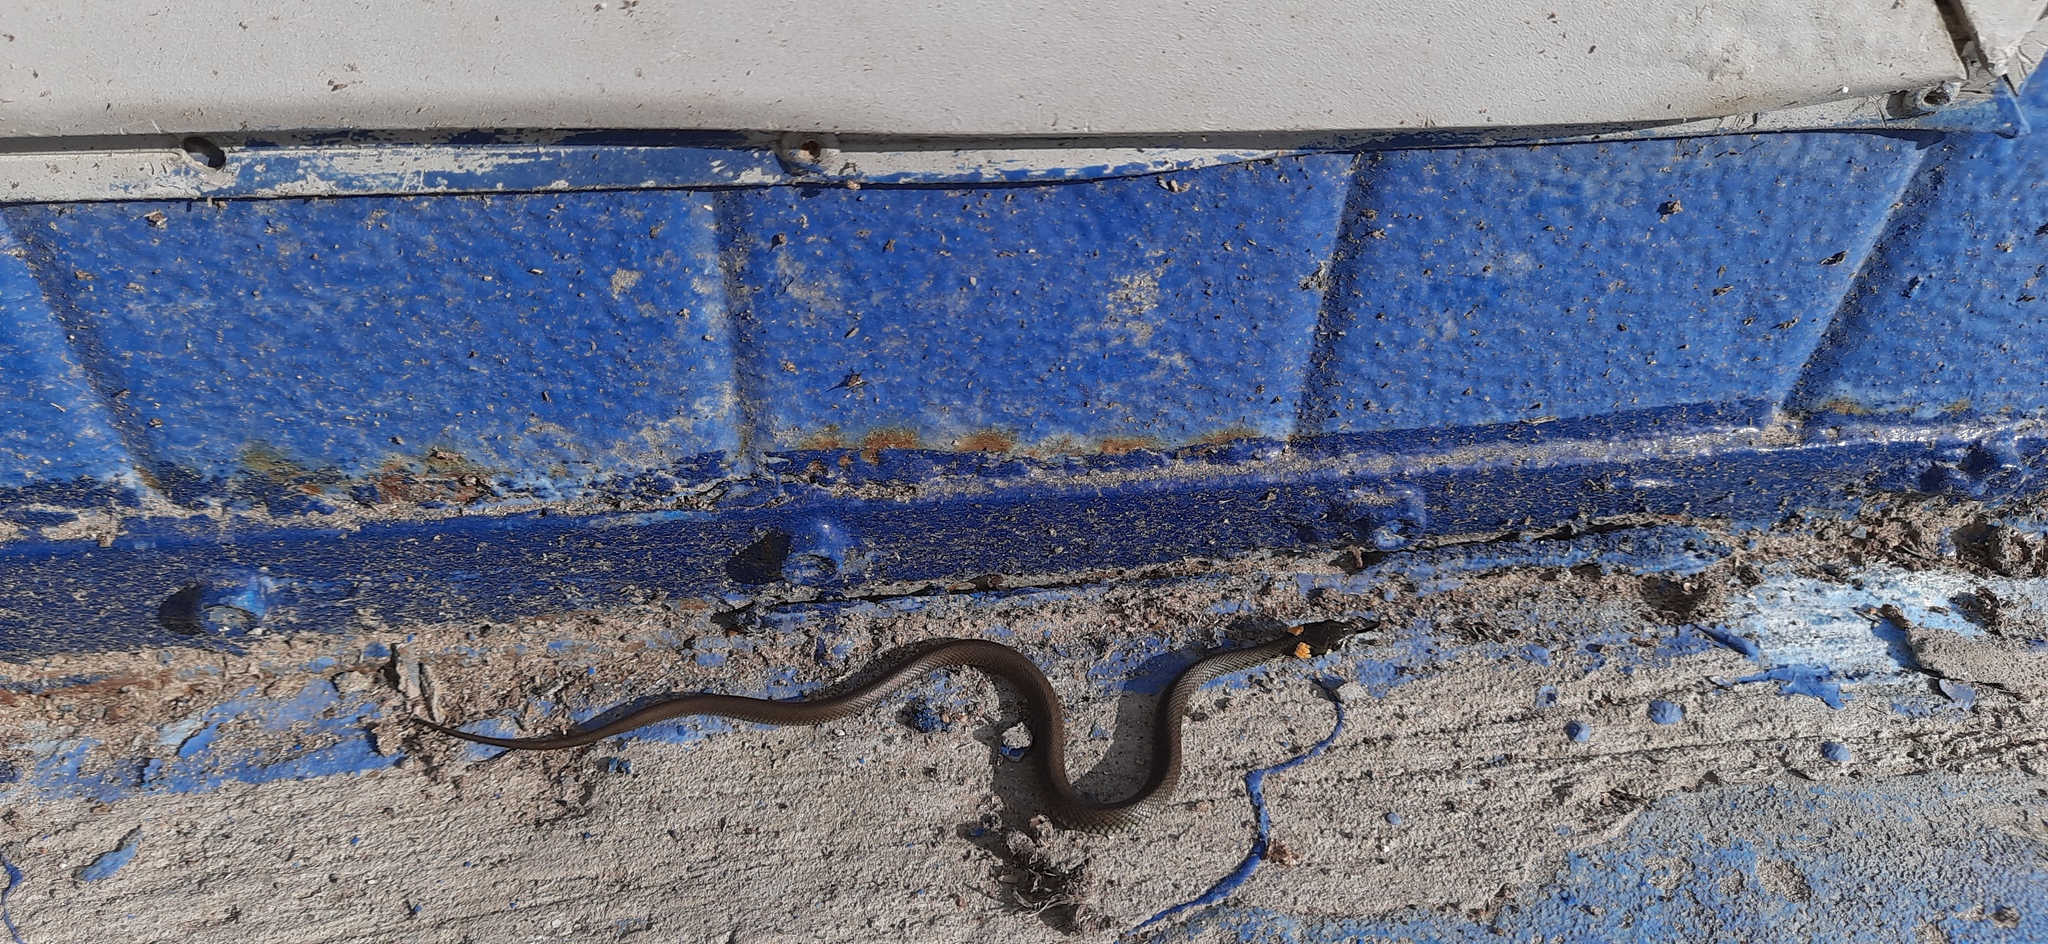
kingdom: Animalia
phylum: Chordata
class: Squamata
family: Colubridae
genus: Natrix
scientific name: Natrix natrix
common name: Grass snake
